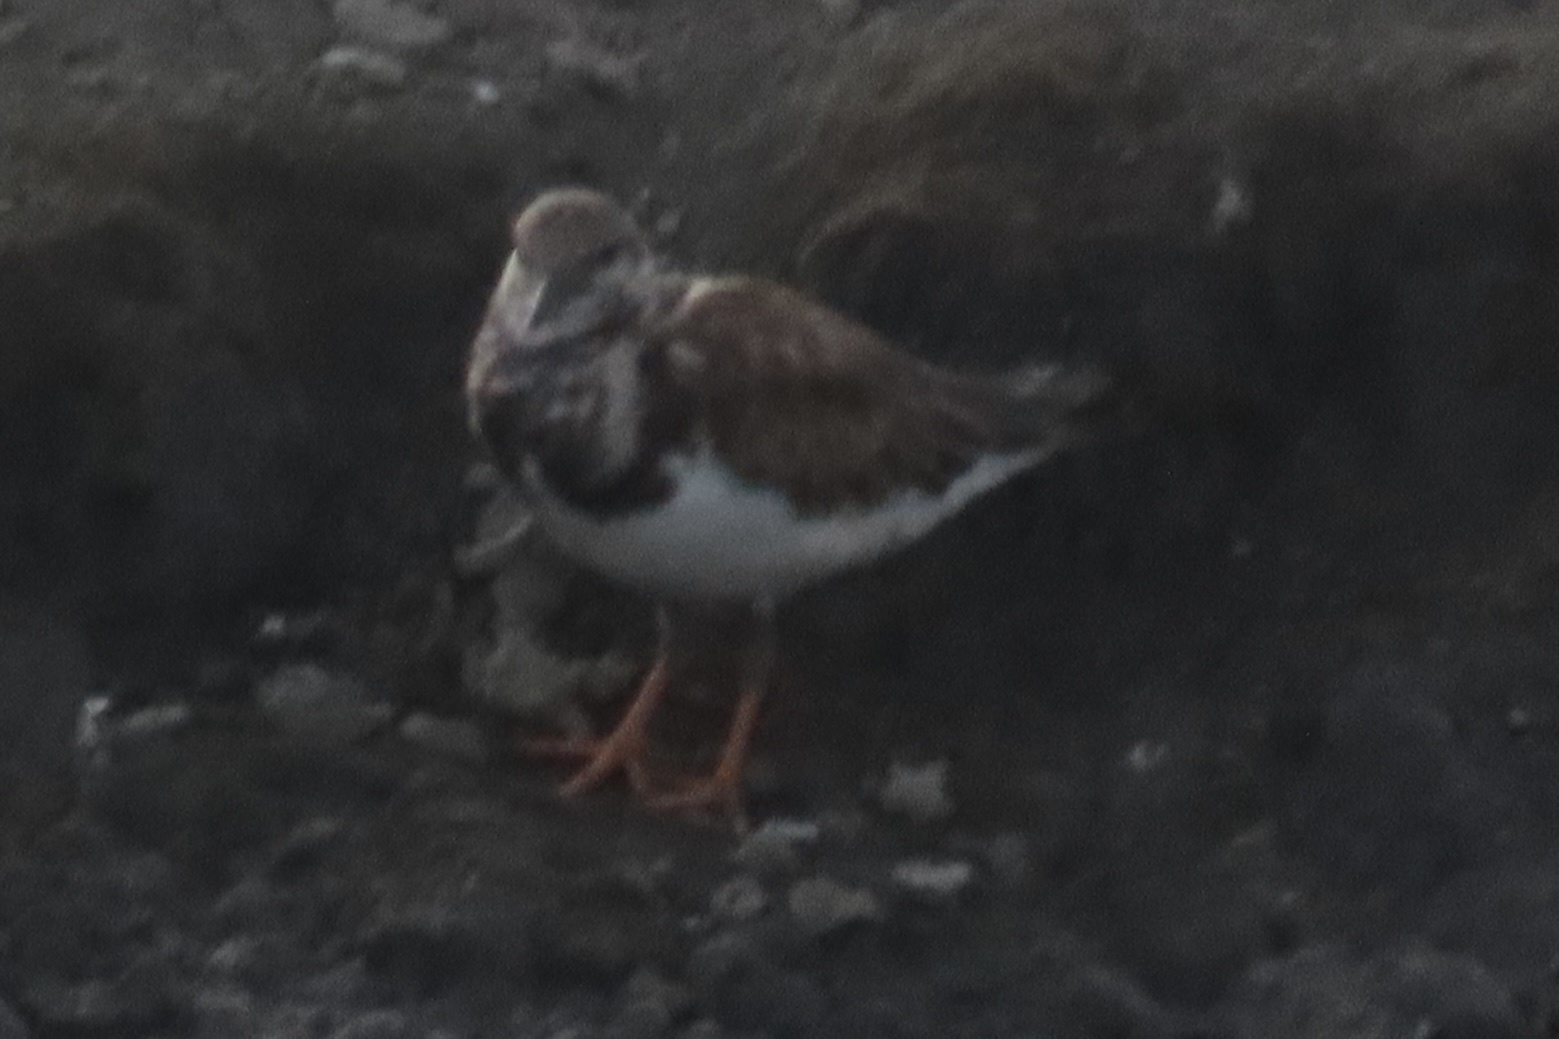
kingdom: Animalia
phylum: Chordata
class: Aves
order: Charadriiformes
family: Scolopacidae
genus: Arenaria
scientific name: Arenaria interpres
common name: Ruddy turnstone
